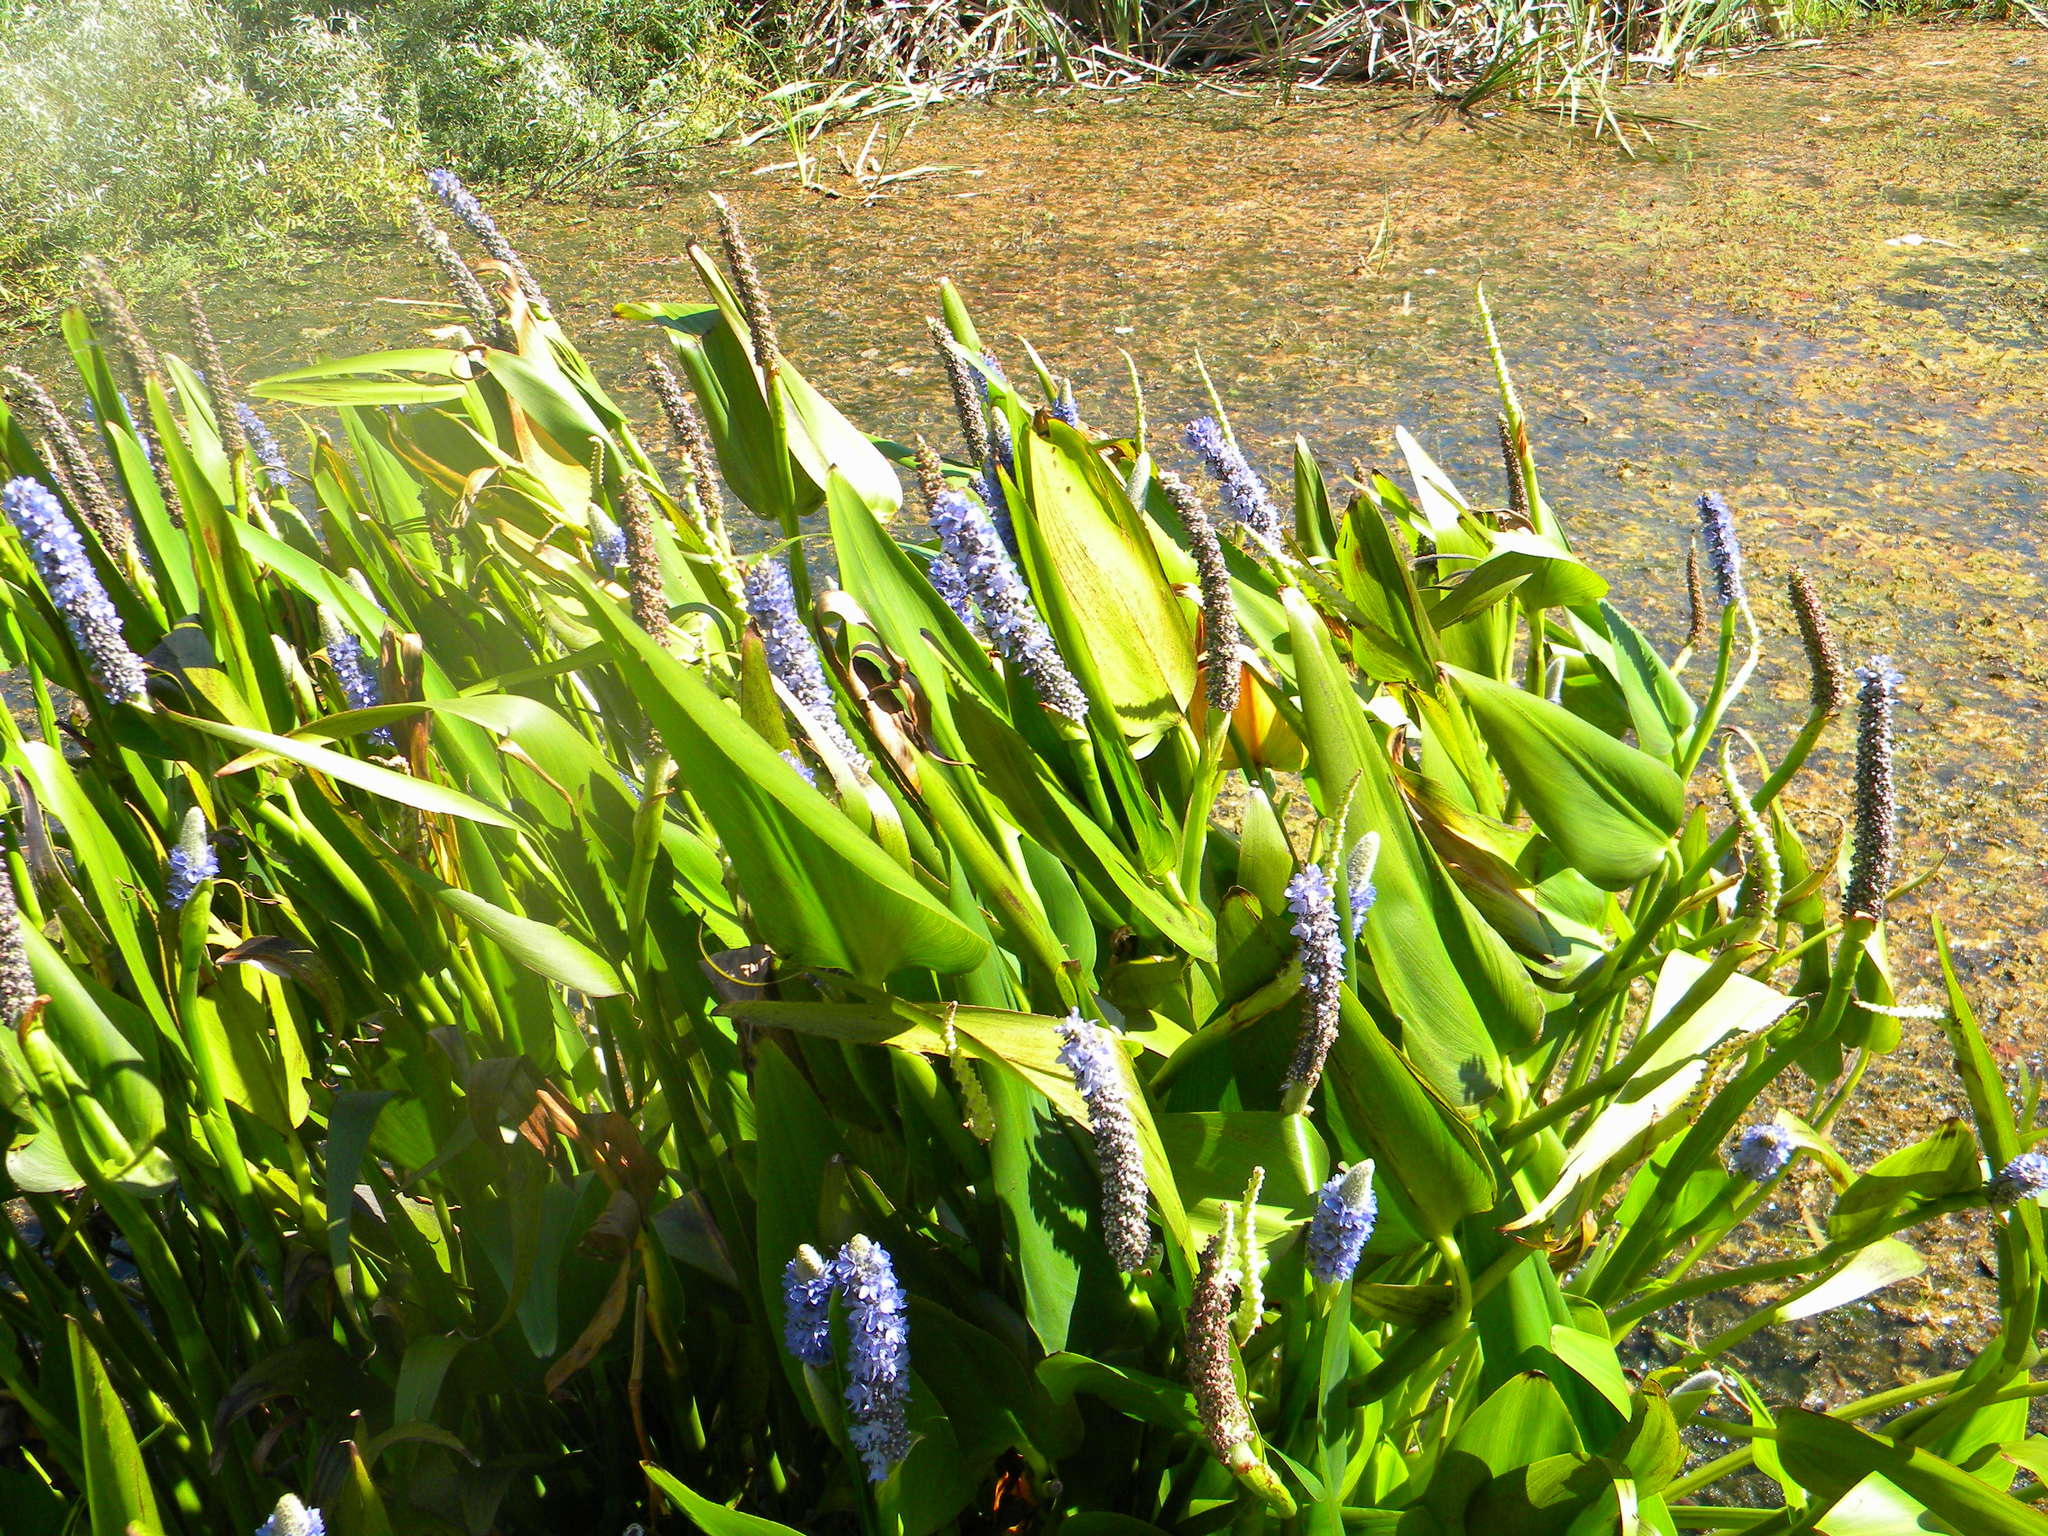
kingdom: Plantae
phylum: Tracheophyta
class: Liliopsida
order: Commelinales
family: Pontederiaceae
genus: Pontederia
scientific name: Pontederia cordata
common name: Pickerelweed
